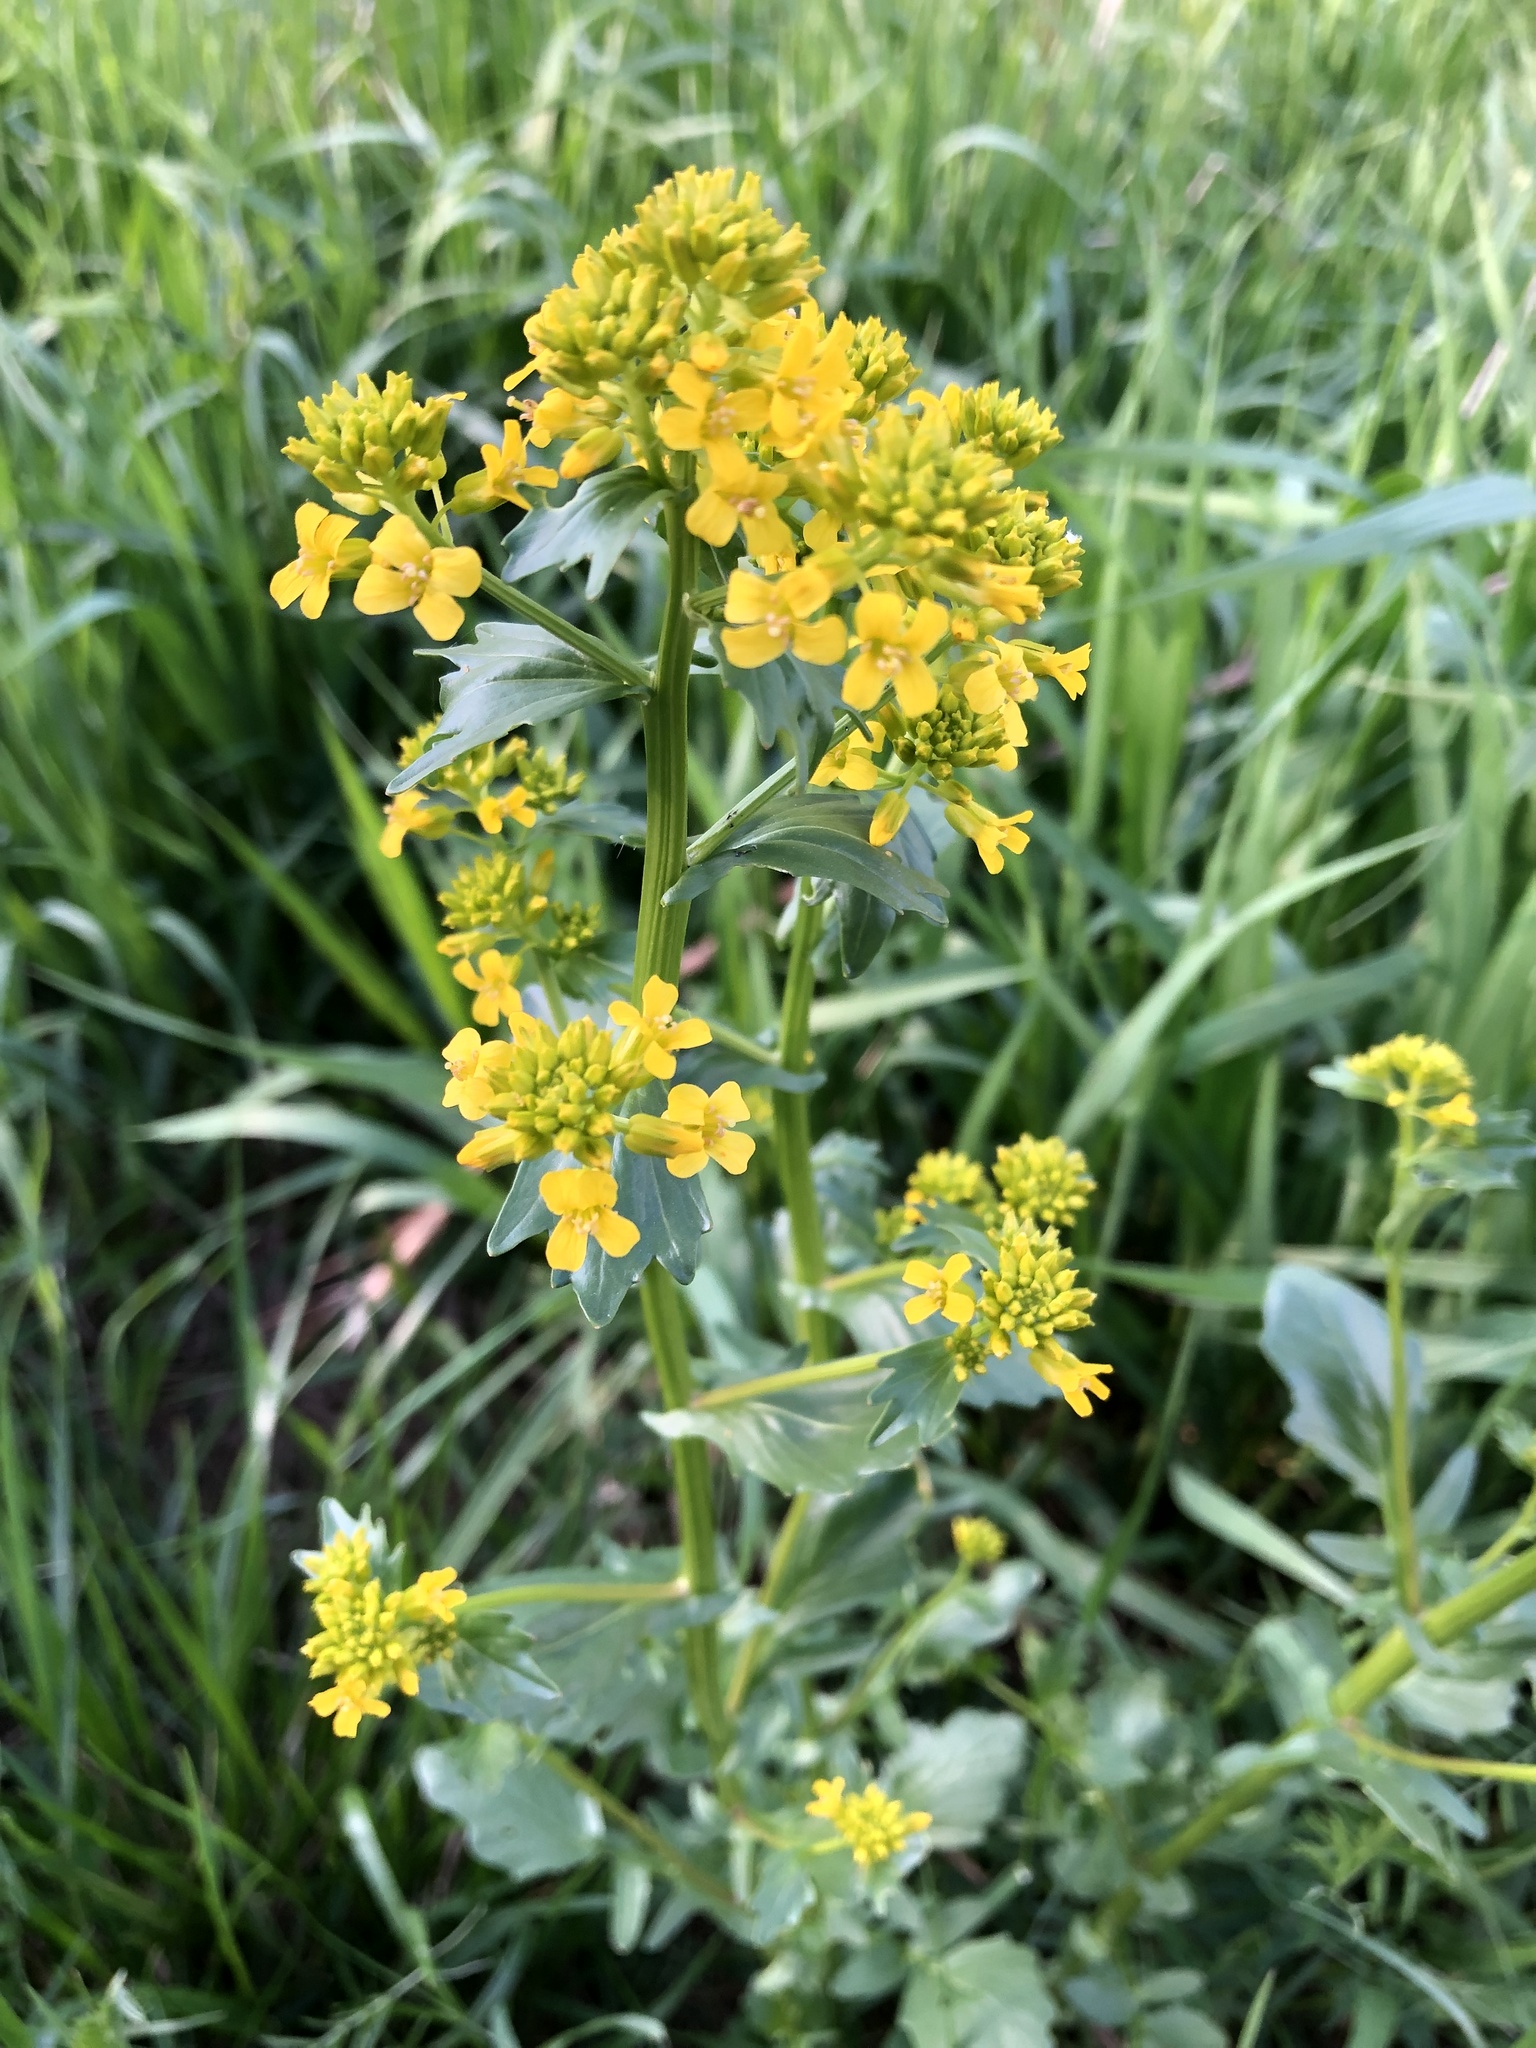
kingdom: Plantae
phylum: Tracheophyta
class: Magnoliopsida
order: Brassicales
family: Brassicaceae
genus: Barbarea
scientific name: Barbarea vulgaris
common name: Cressy-greens
